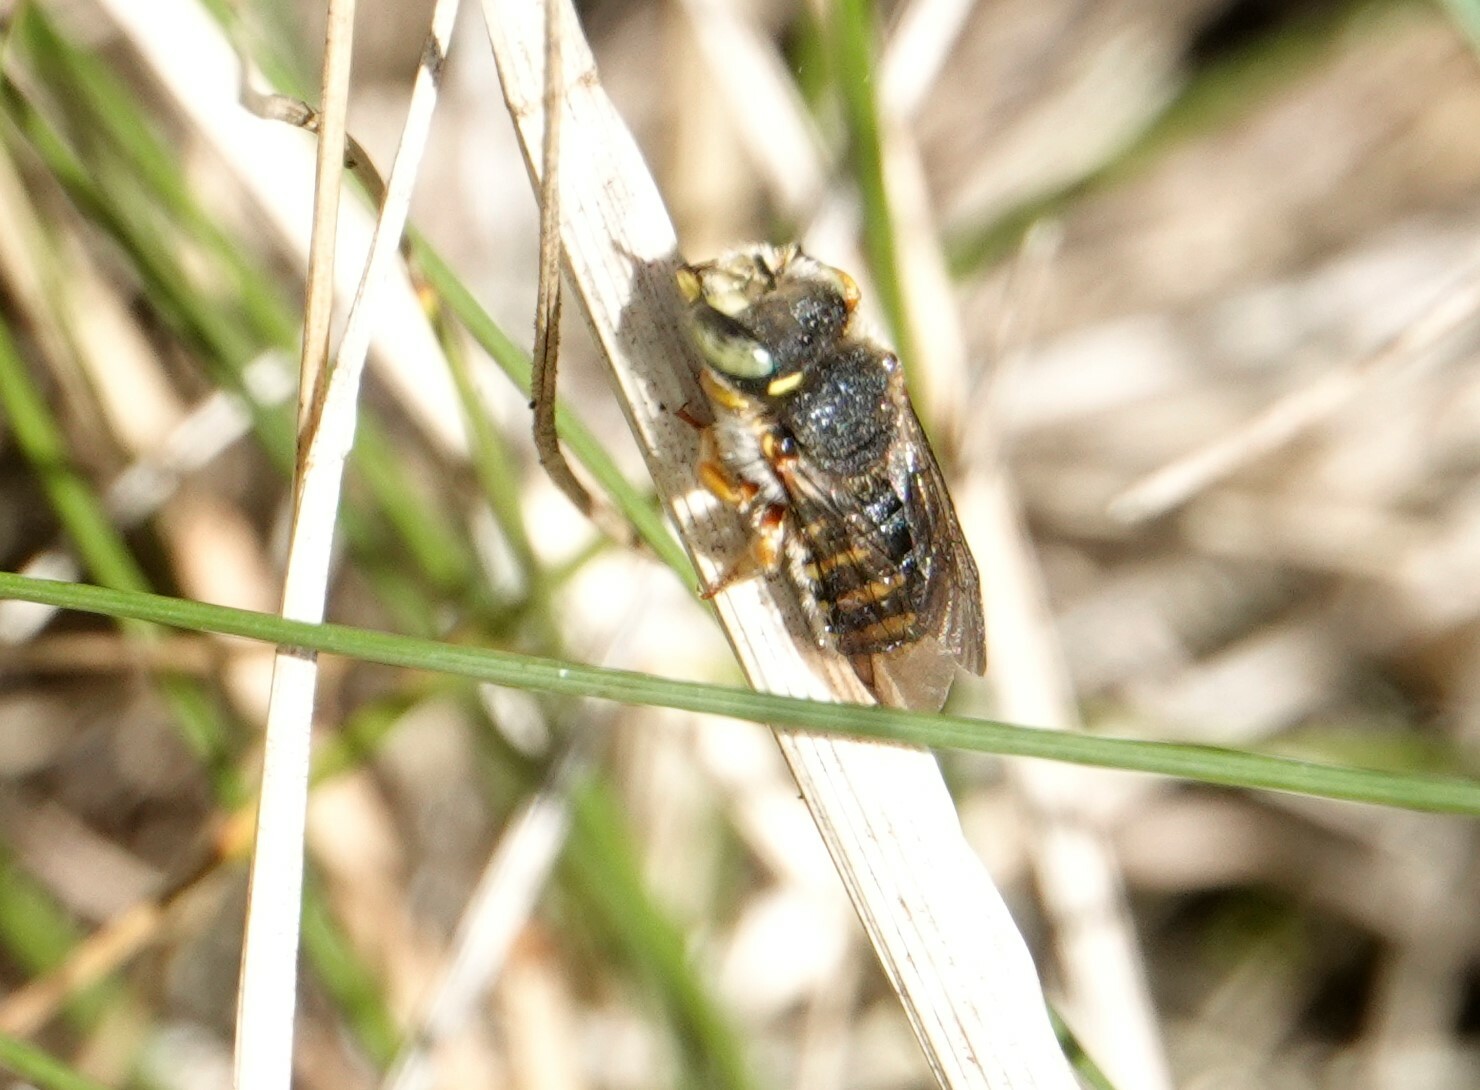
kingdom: Animalia
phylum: Arthropoda
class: Insecta
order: Hymenoptera
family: Megachilidae
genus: Anthidium
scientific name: Anthidium oblongatum
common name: Oblong wool carder bee
